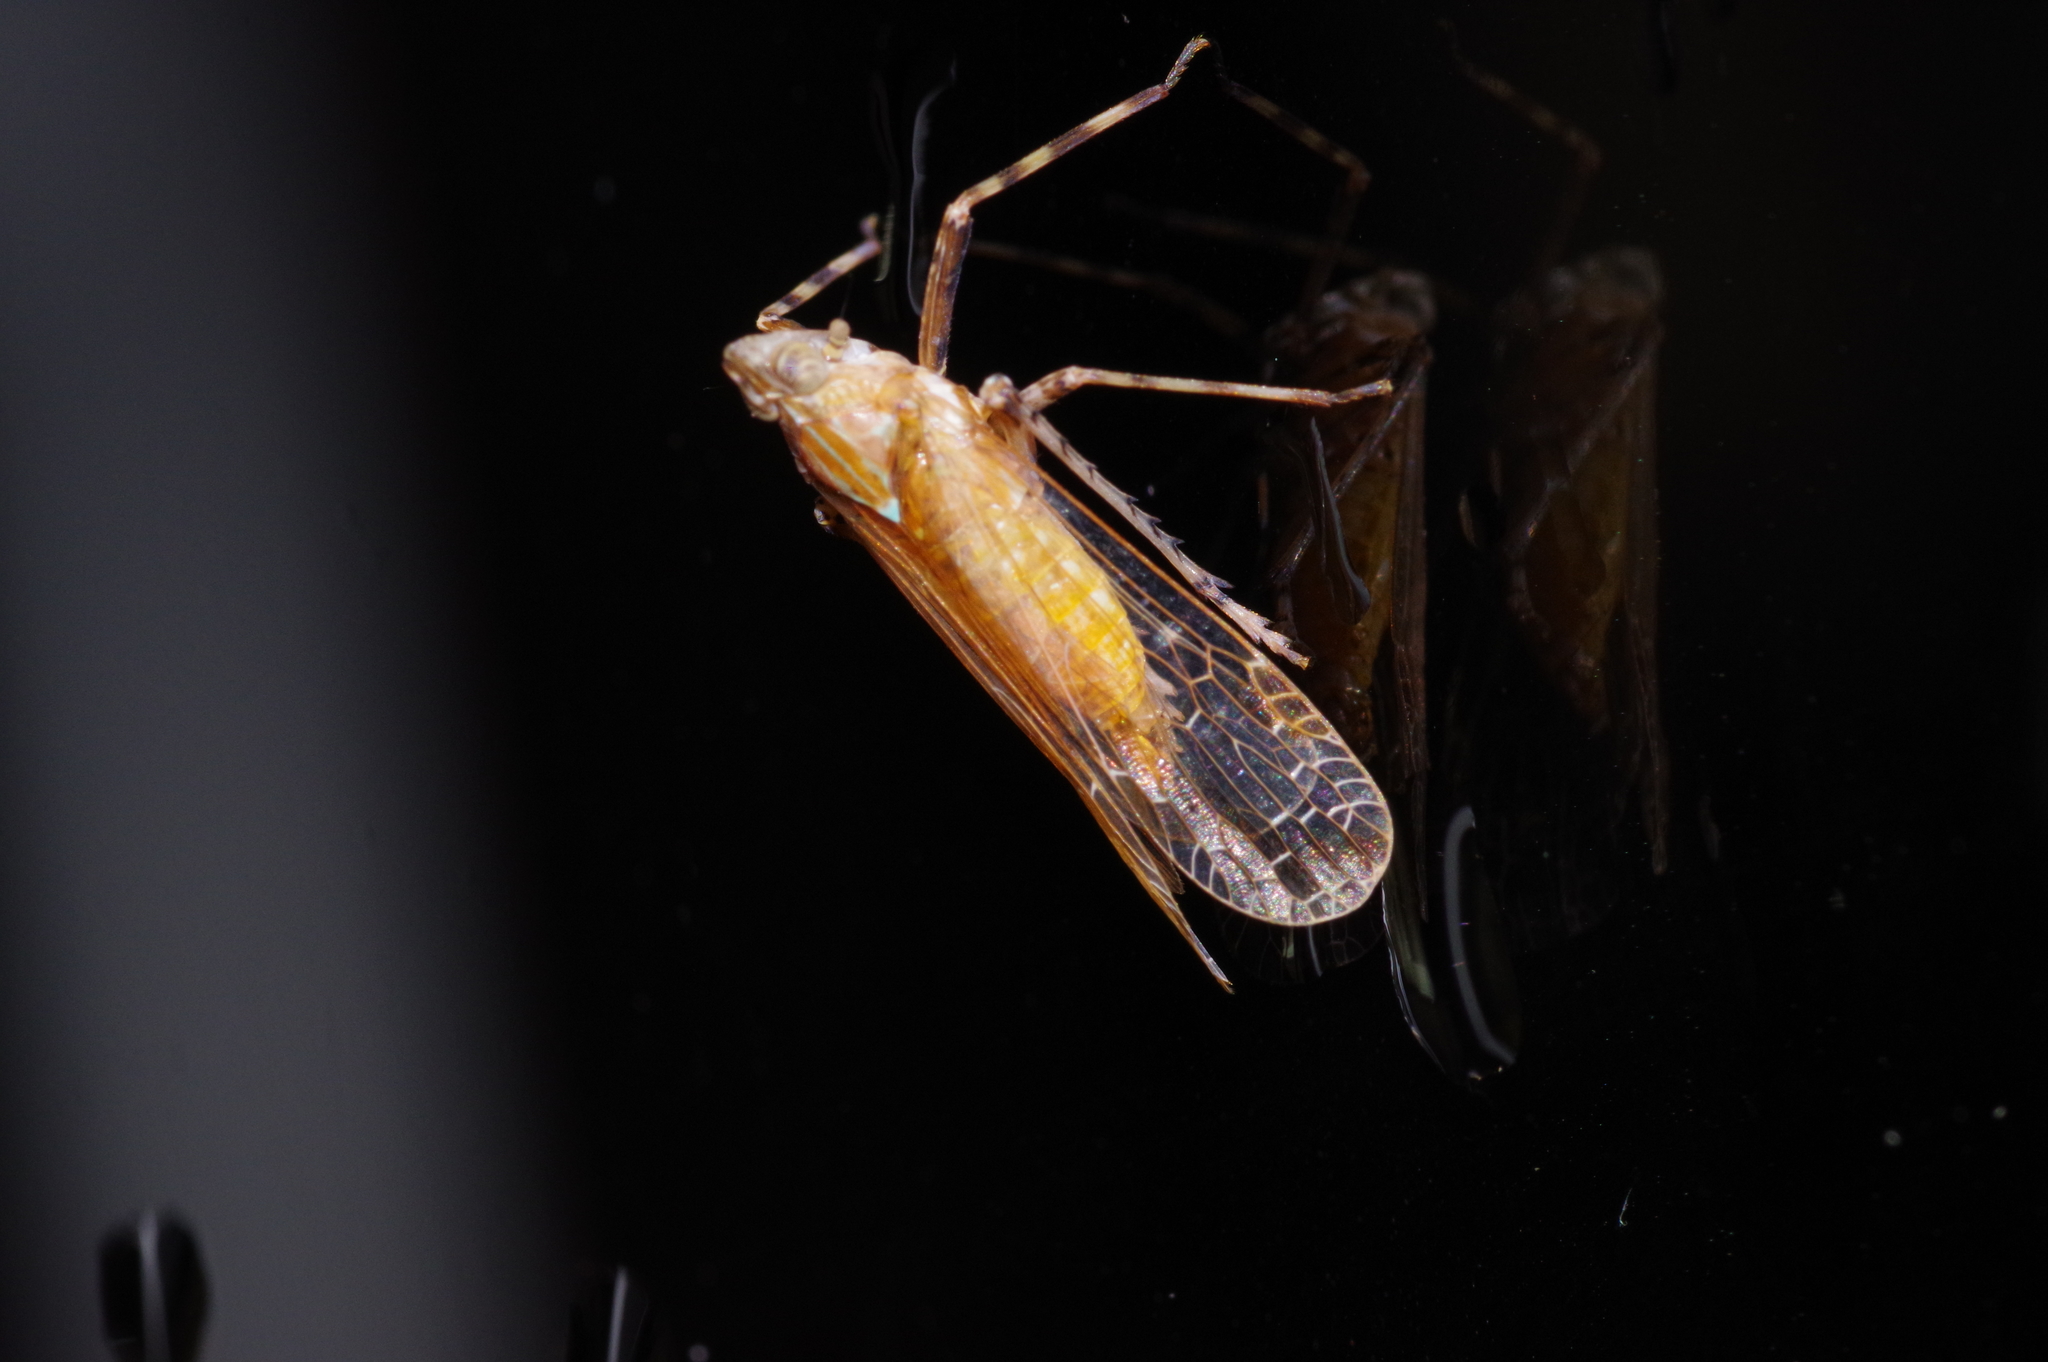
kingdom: Animalia
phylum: Arthropoda
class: Insecta
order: Hemiptera
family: Dictyopharidae
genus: Orthopagus
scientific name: Orthopagus lunulifer
